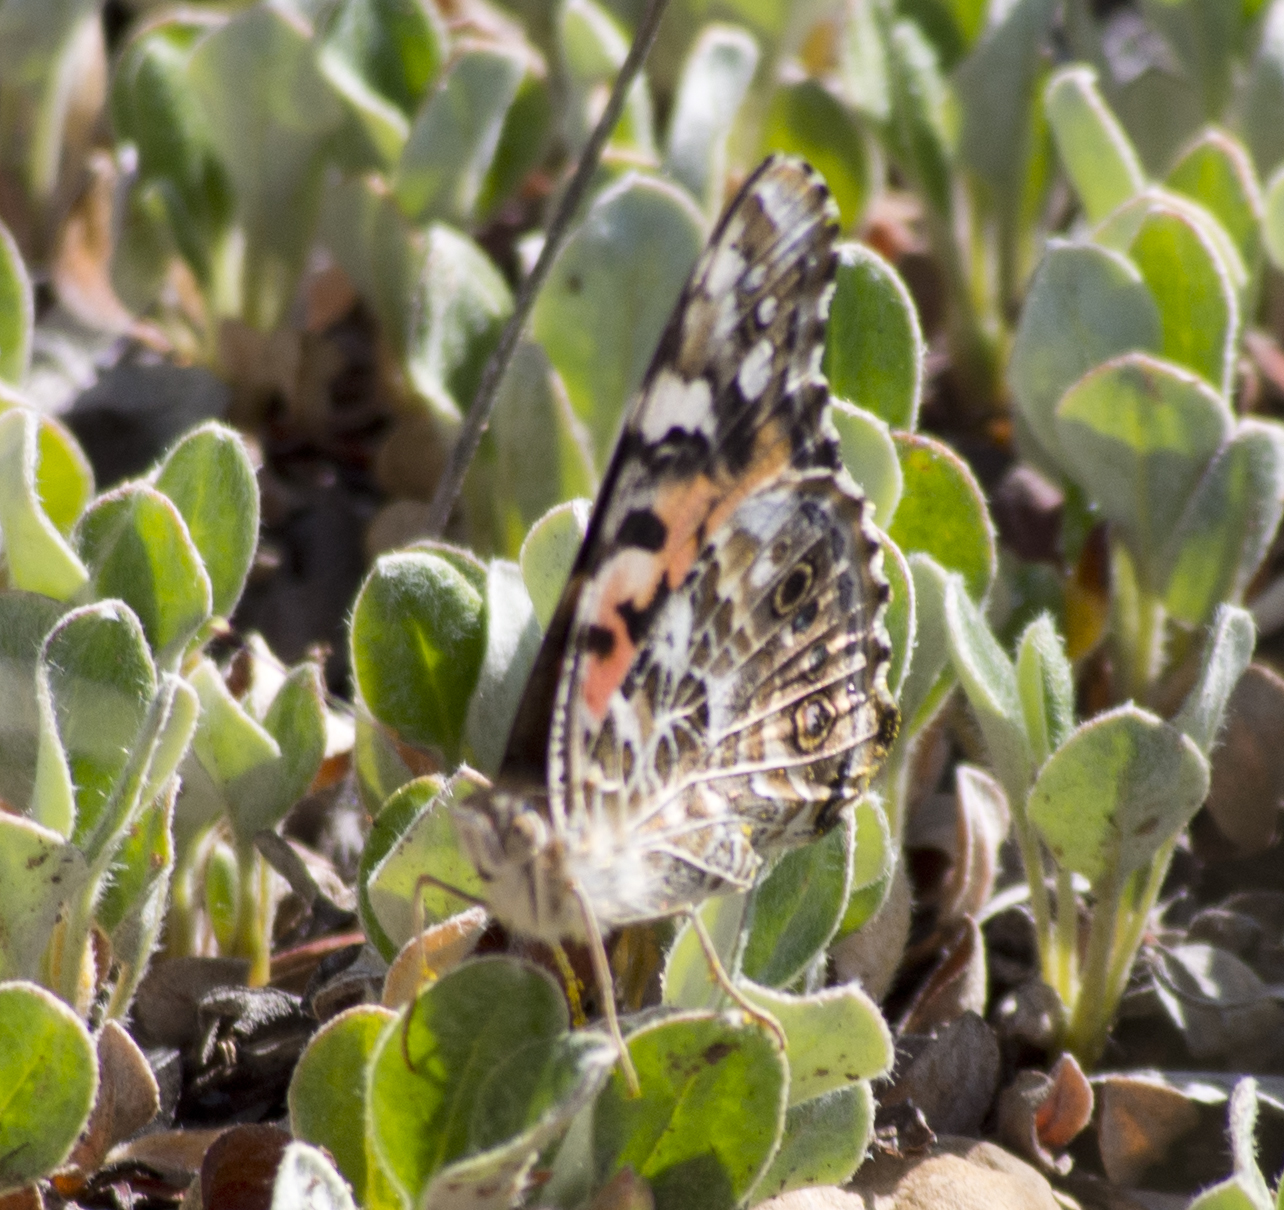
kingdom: Animalia
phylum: Arthropoda
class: Insecta
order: Lepidoptera
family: Nymphalidae
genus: Vanessa
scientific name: Vanessa cardui
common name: Painted lady
